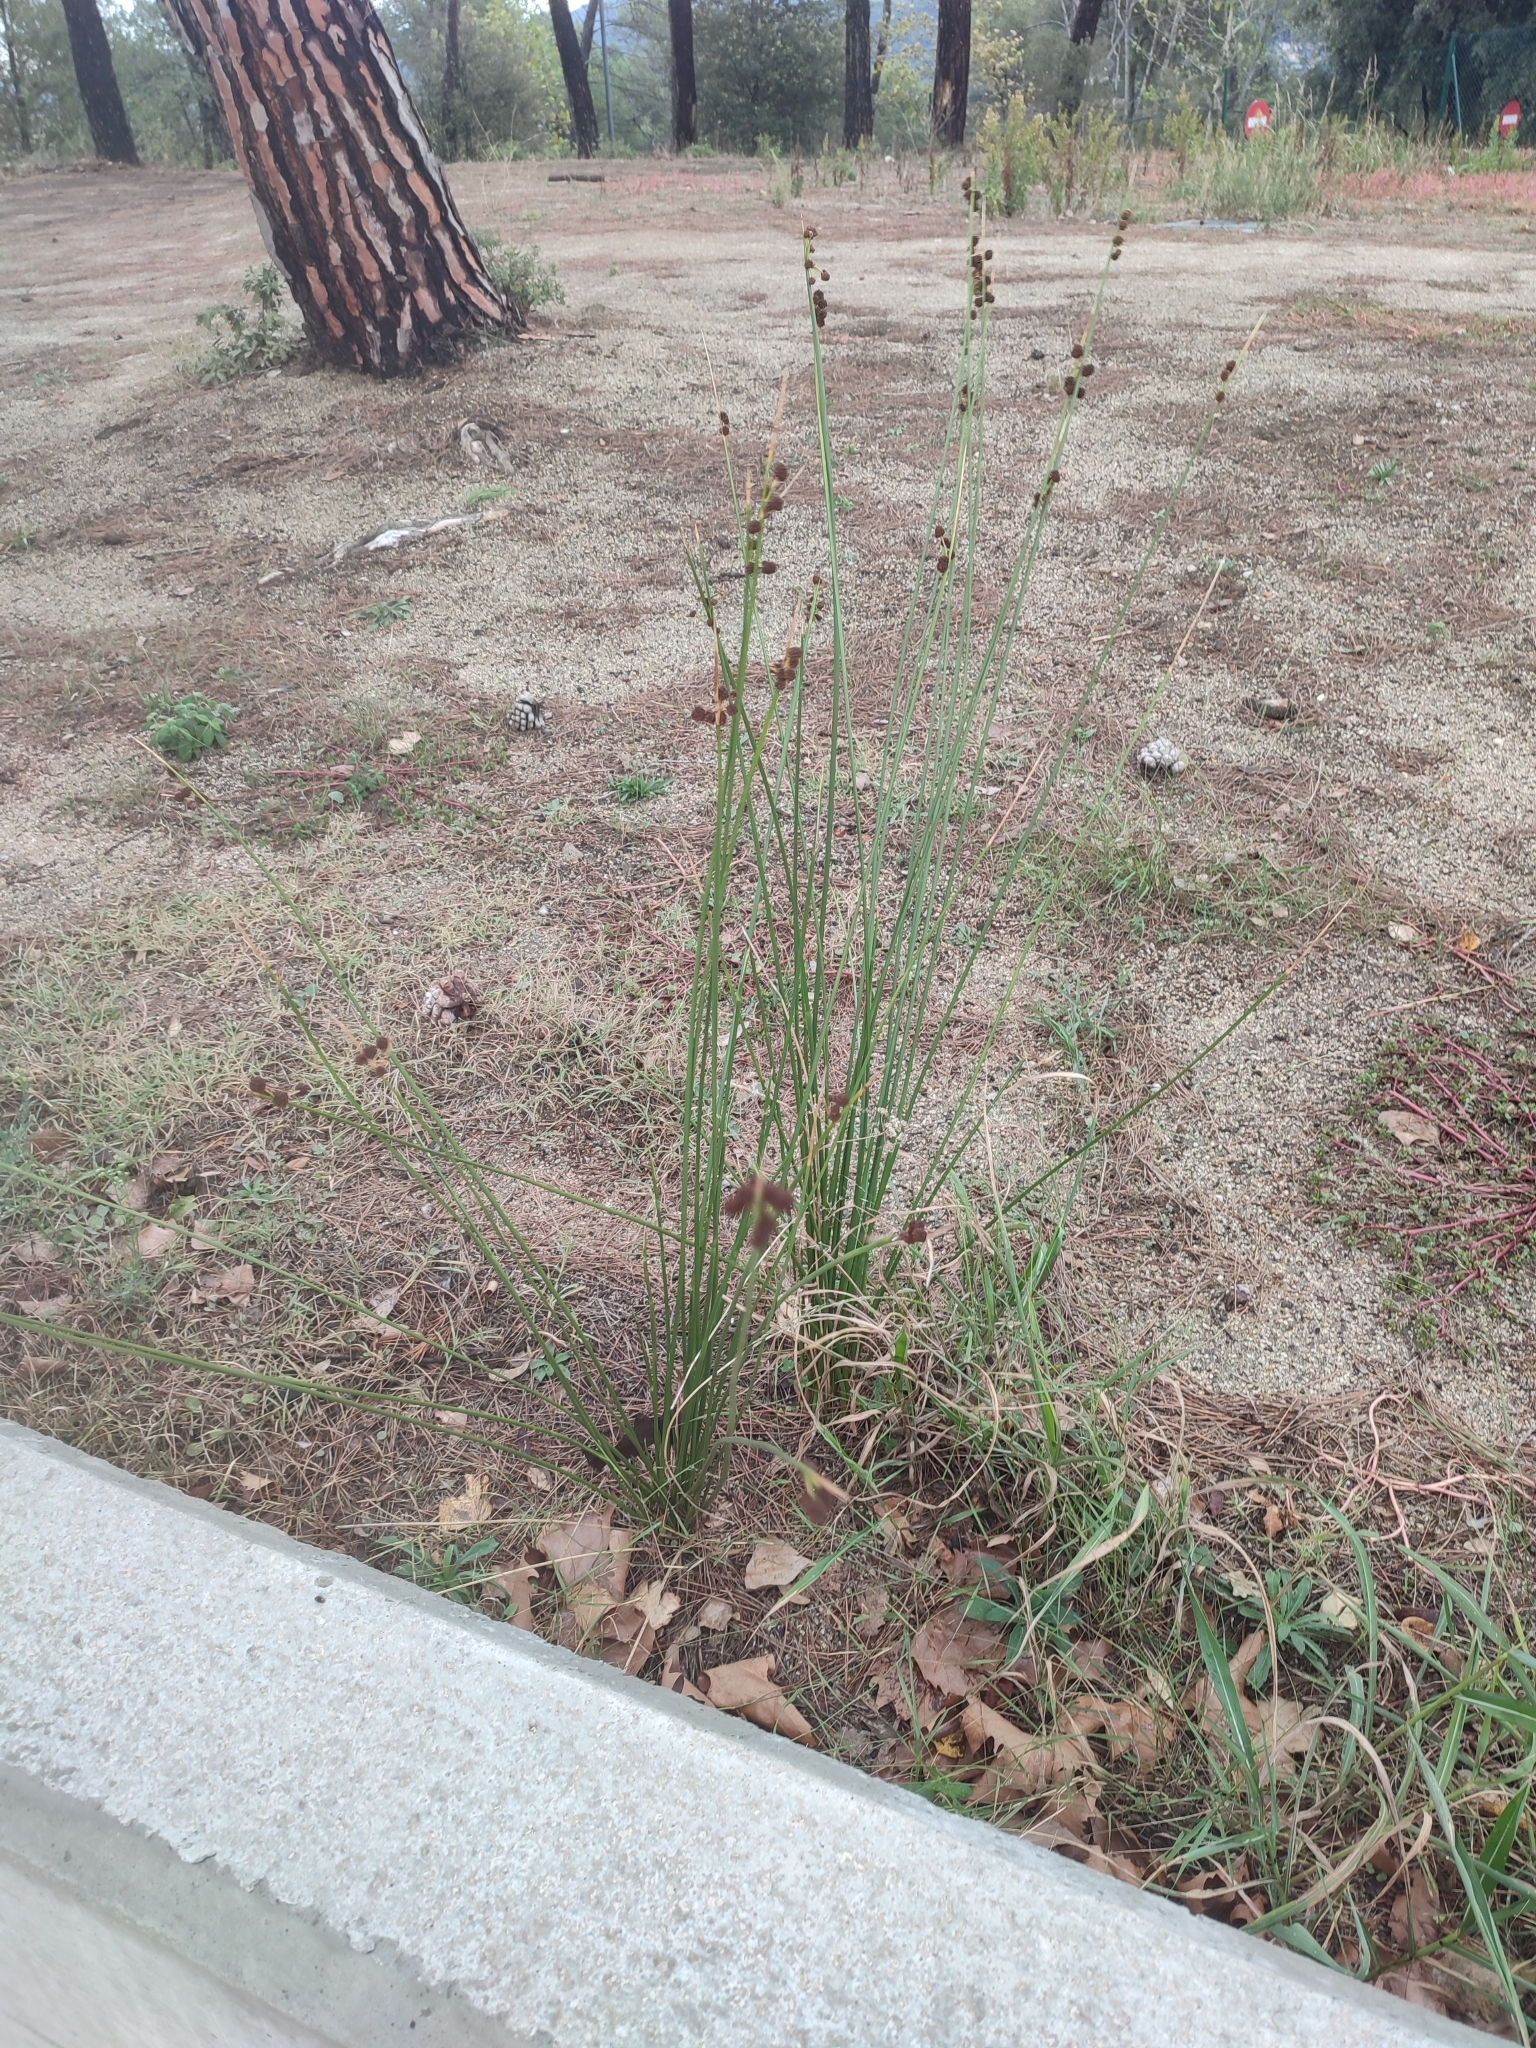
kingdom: Plantae
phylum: Tracheophyta
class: Liliopsida
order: Poales
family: Cyperaceae
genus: Scirpoides
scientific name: Scirpoides holoschoenus
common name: Round-headed club-rush
